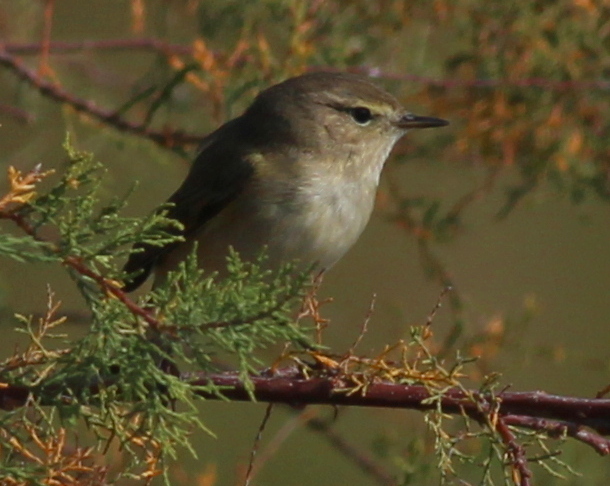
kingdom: Animalia
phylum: Chordata
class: Aves
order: Passeriformes
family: Phylloscopidae
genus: Phylloscopus
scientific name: Phylloscopus collybita
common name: Common chiffchaff
